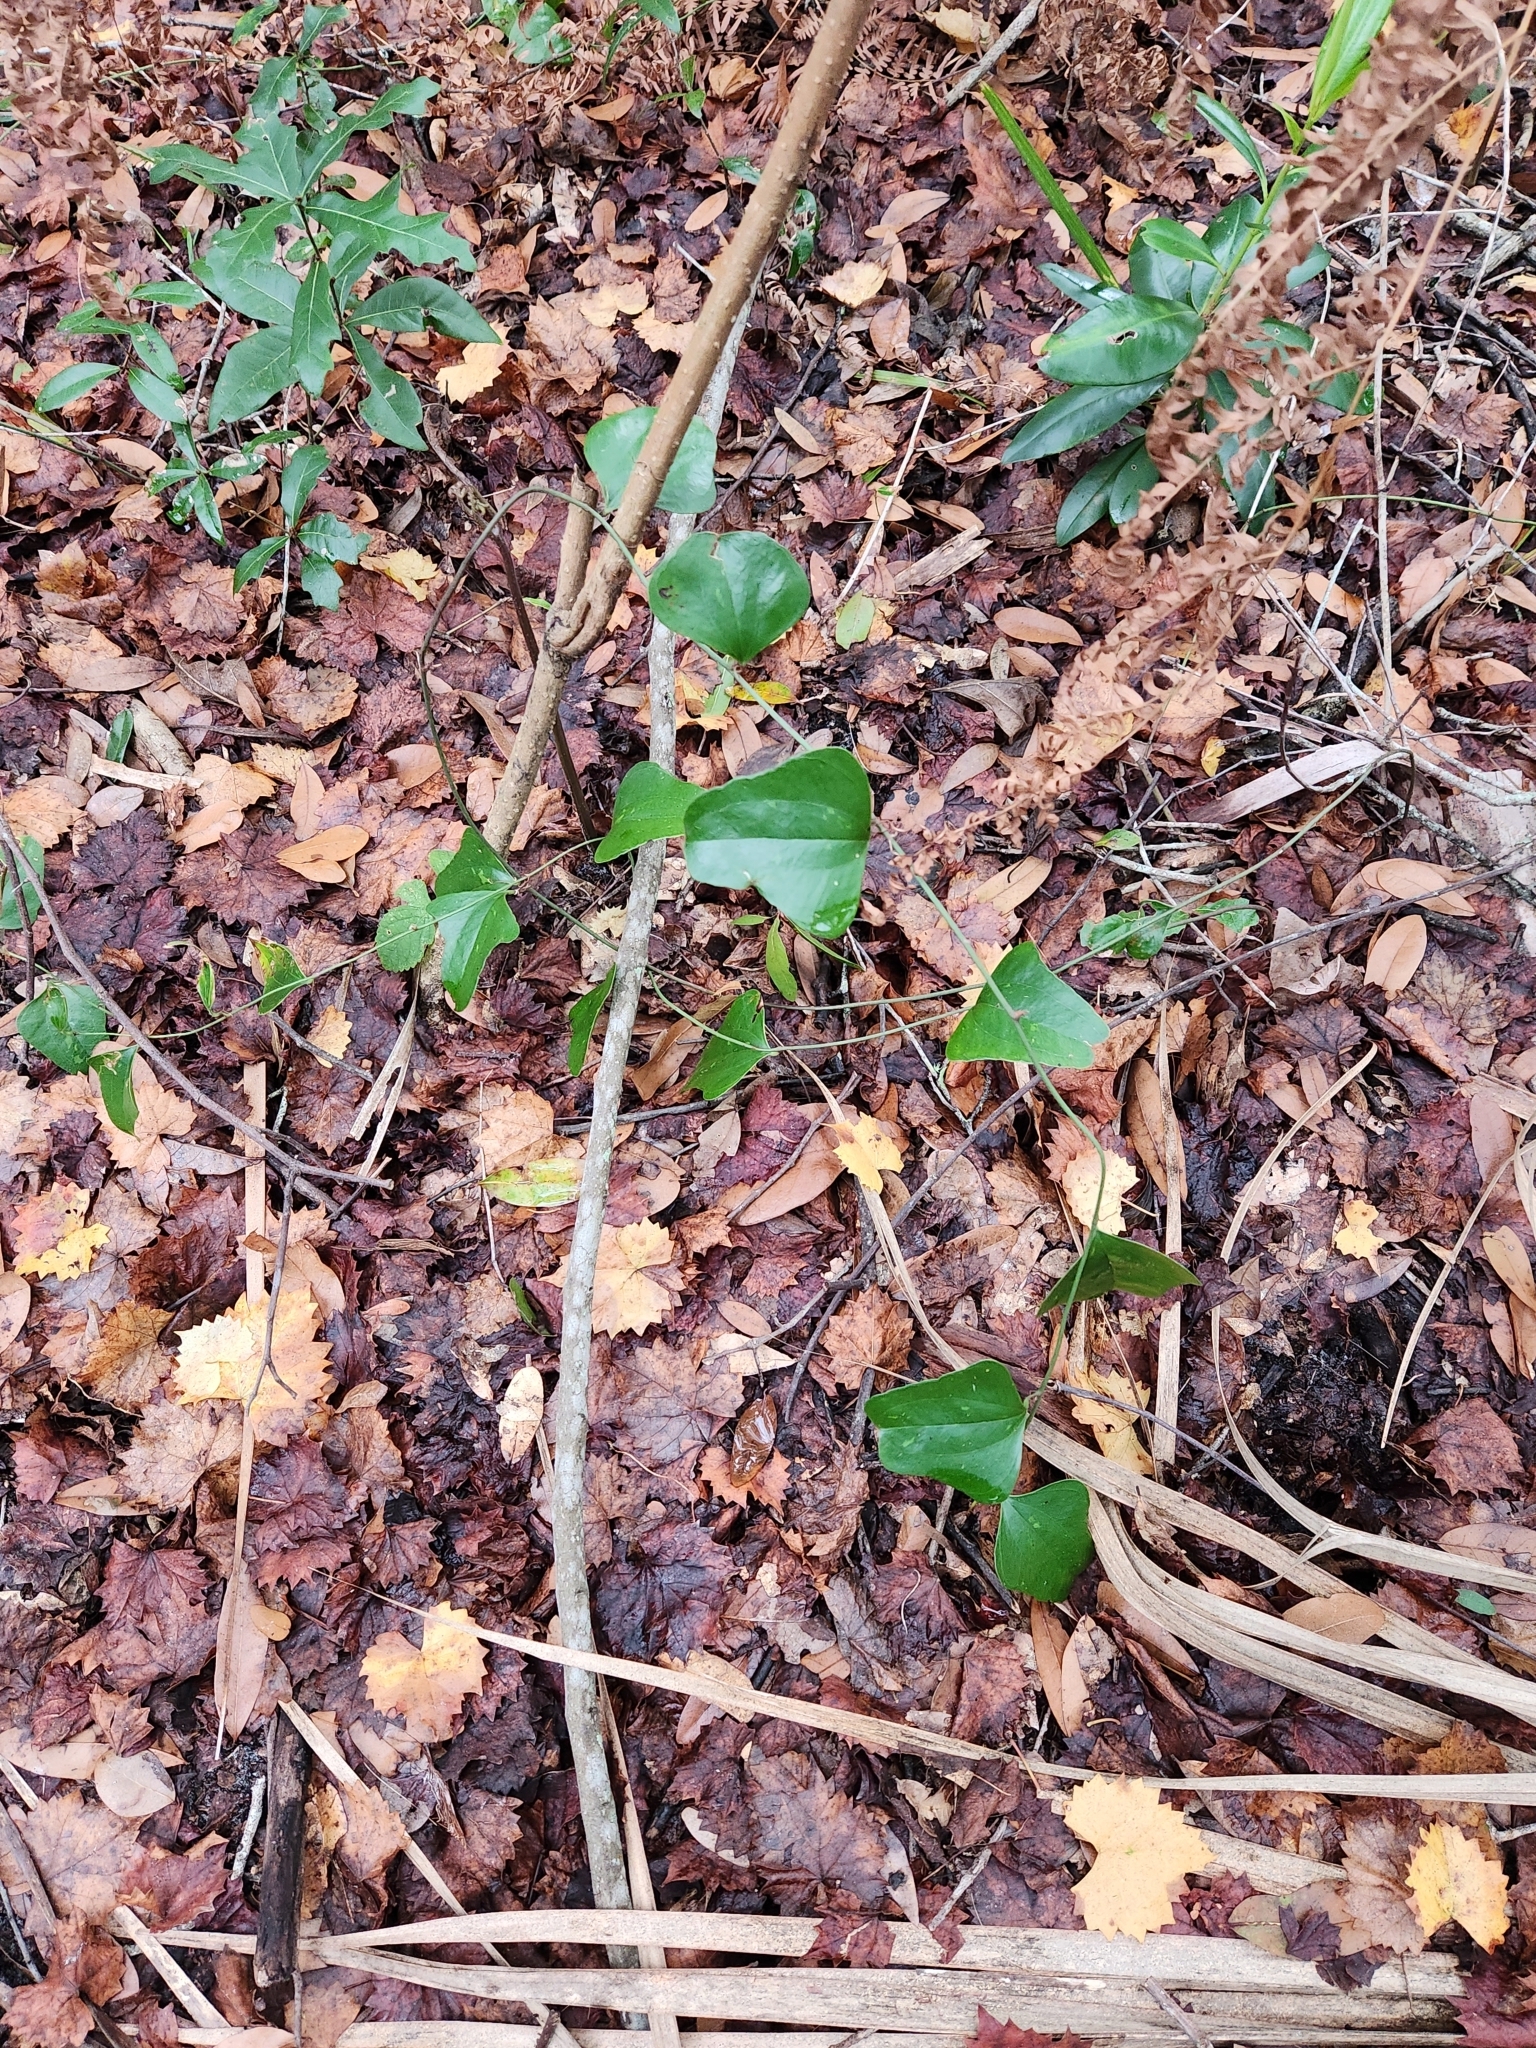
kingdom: Plantae
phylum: Tracheophyta
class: Liliopsida
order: Liliales
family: Smilacaceae
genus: Smilax
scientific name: Smilax auriculata
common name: Wild bamboo
